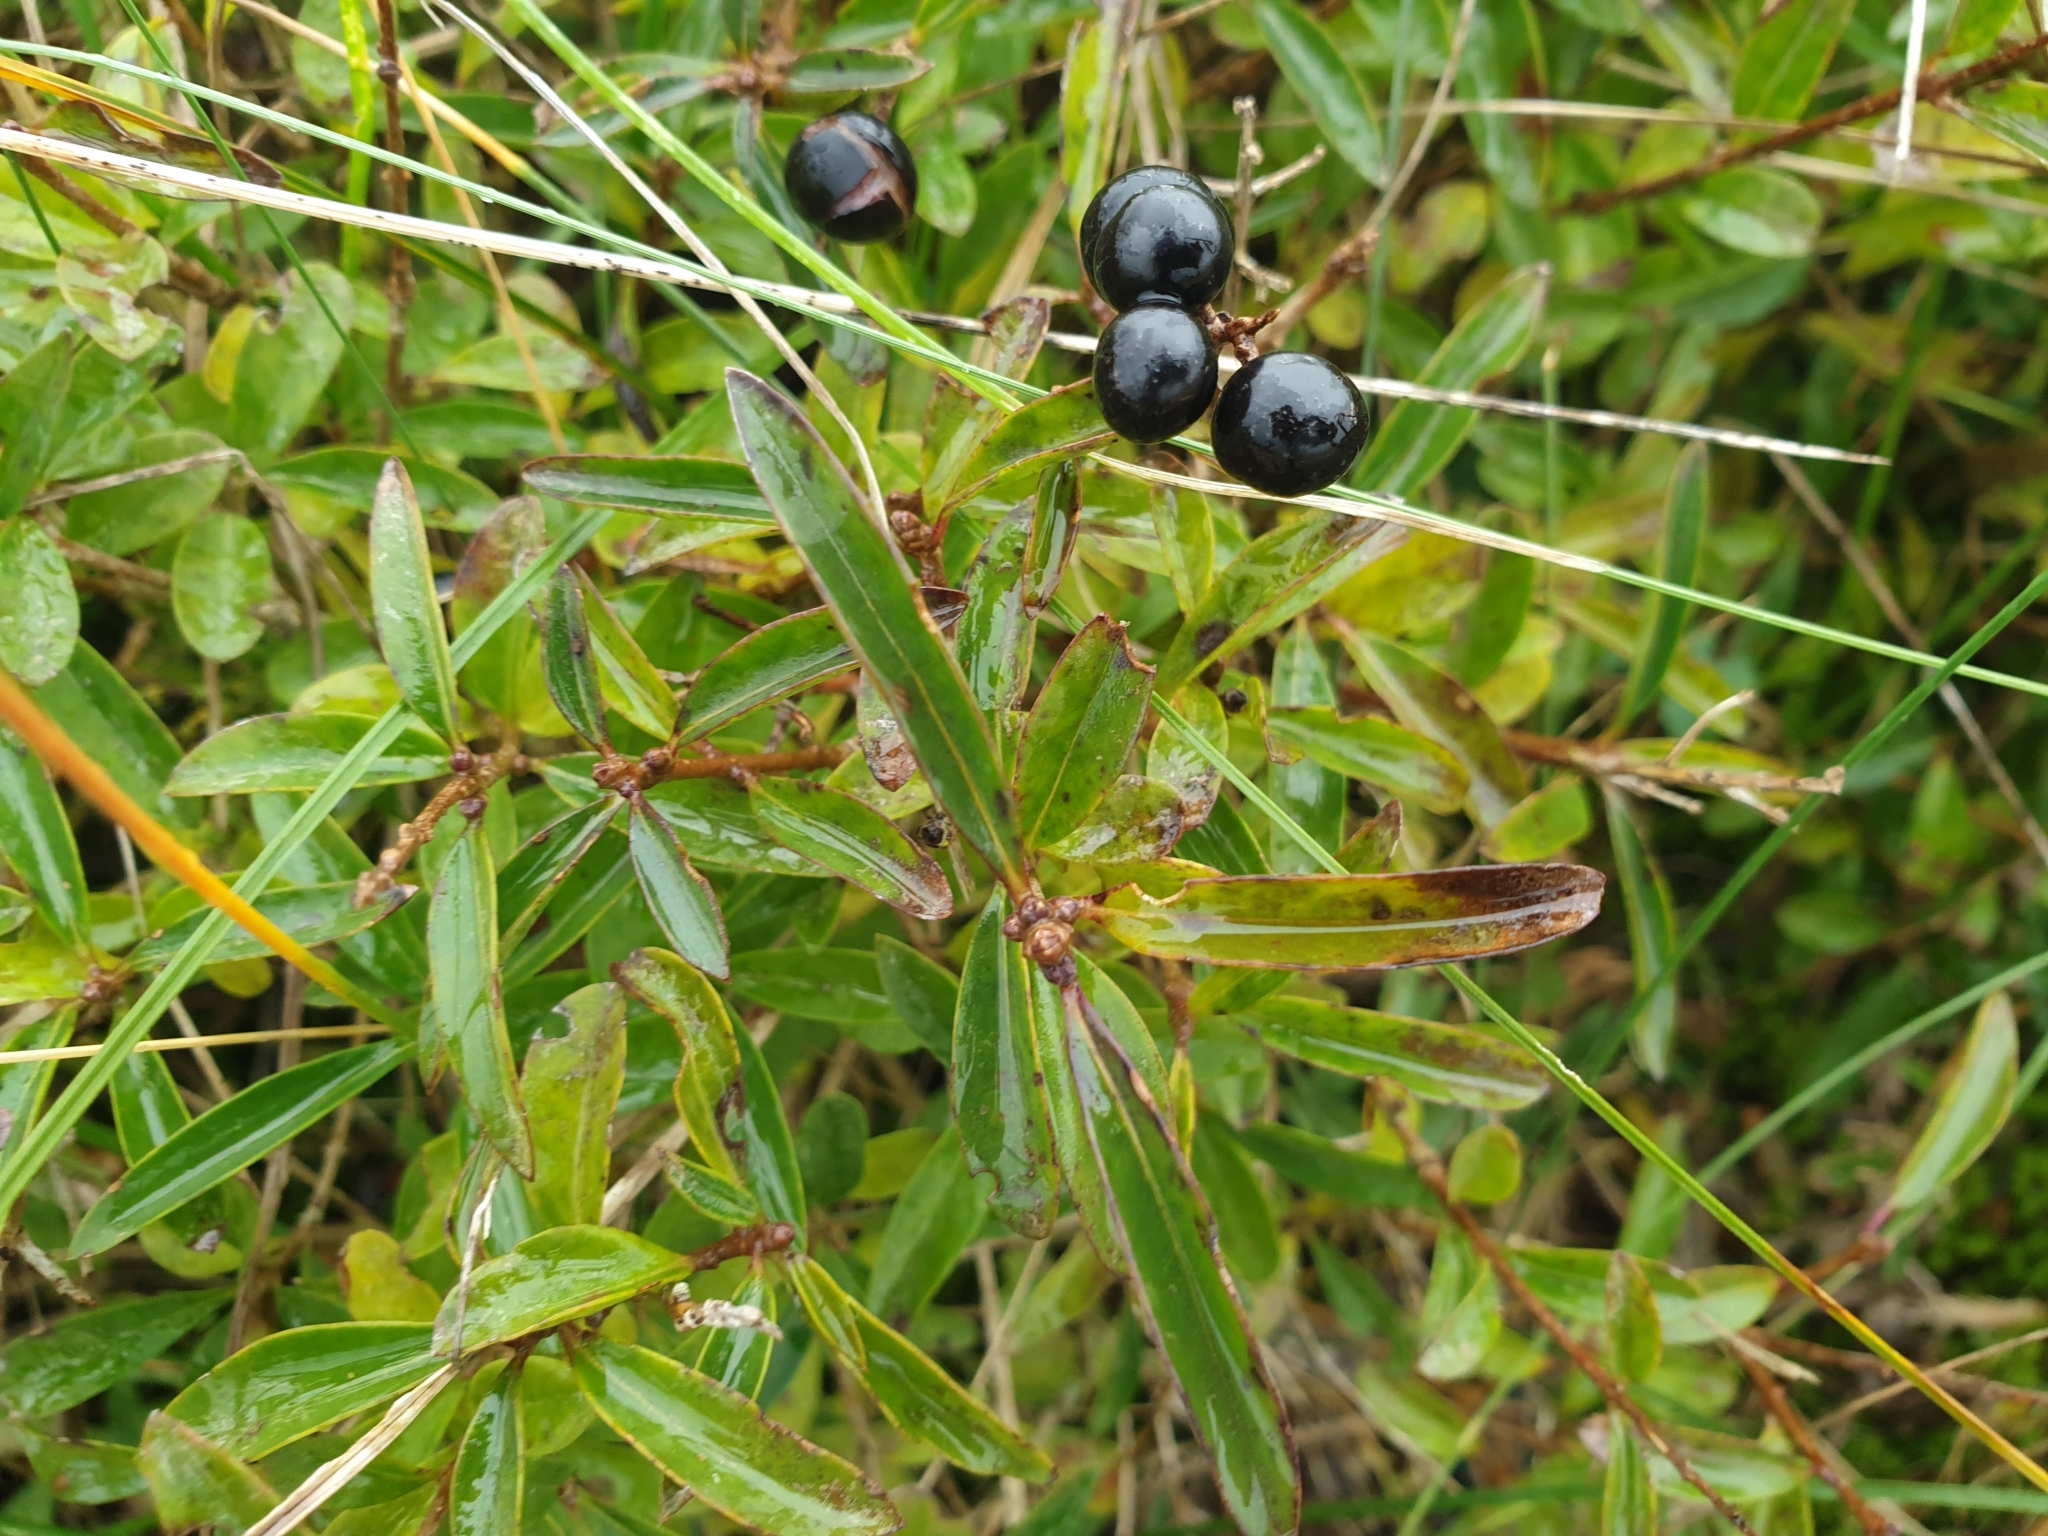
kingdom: Plantae
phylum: Tracheophyta
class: Magnoliopsida
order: Lamiales
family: Oleaceae
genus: Ligustrum
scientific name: Ligustrum vulgare
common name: Wild privet
